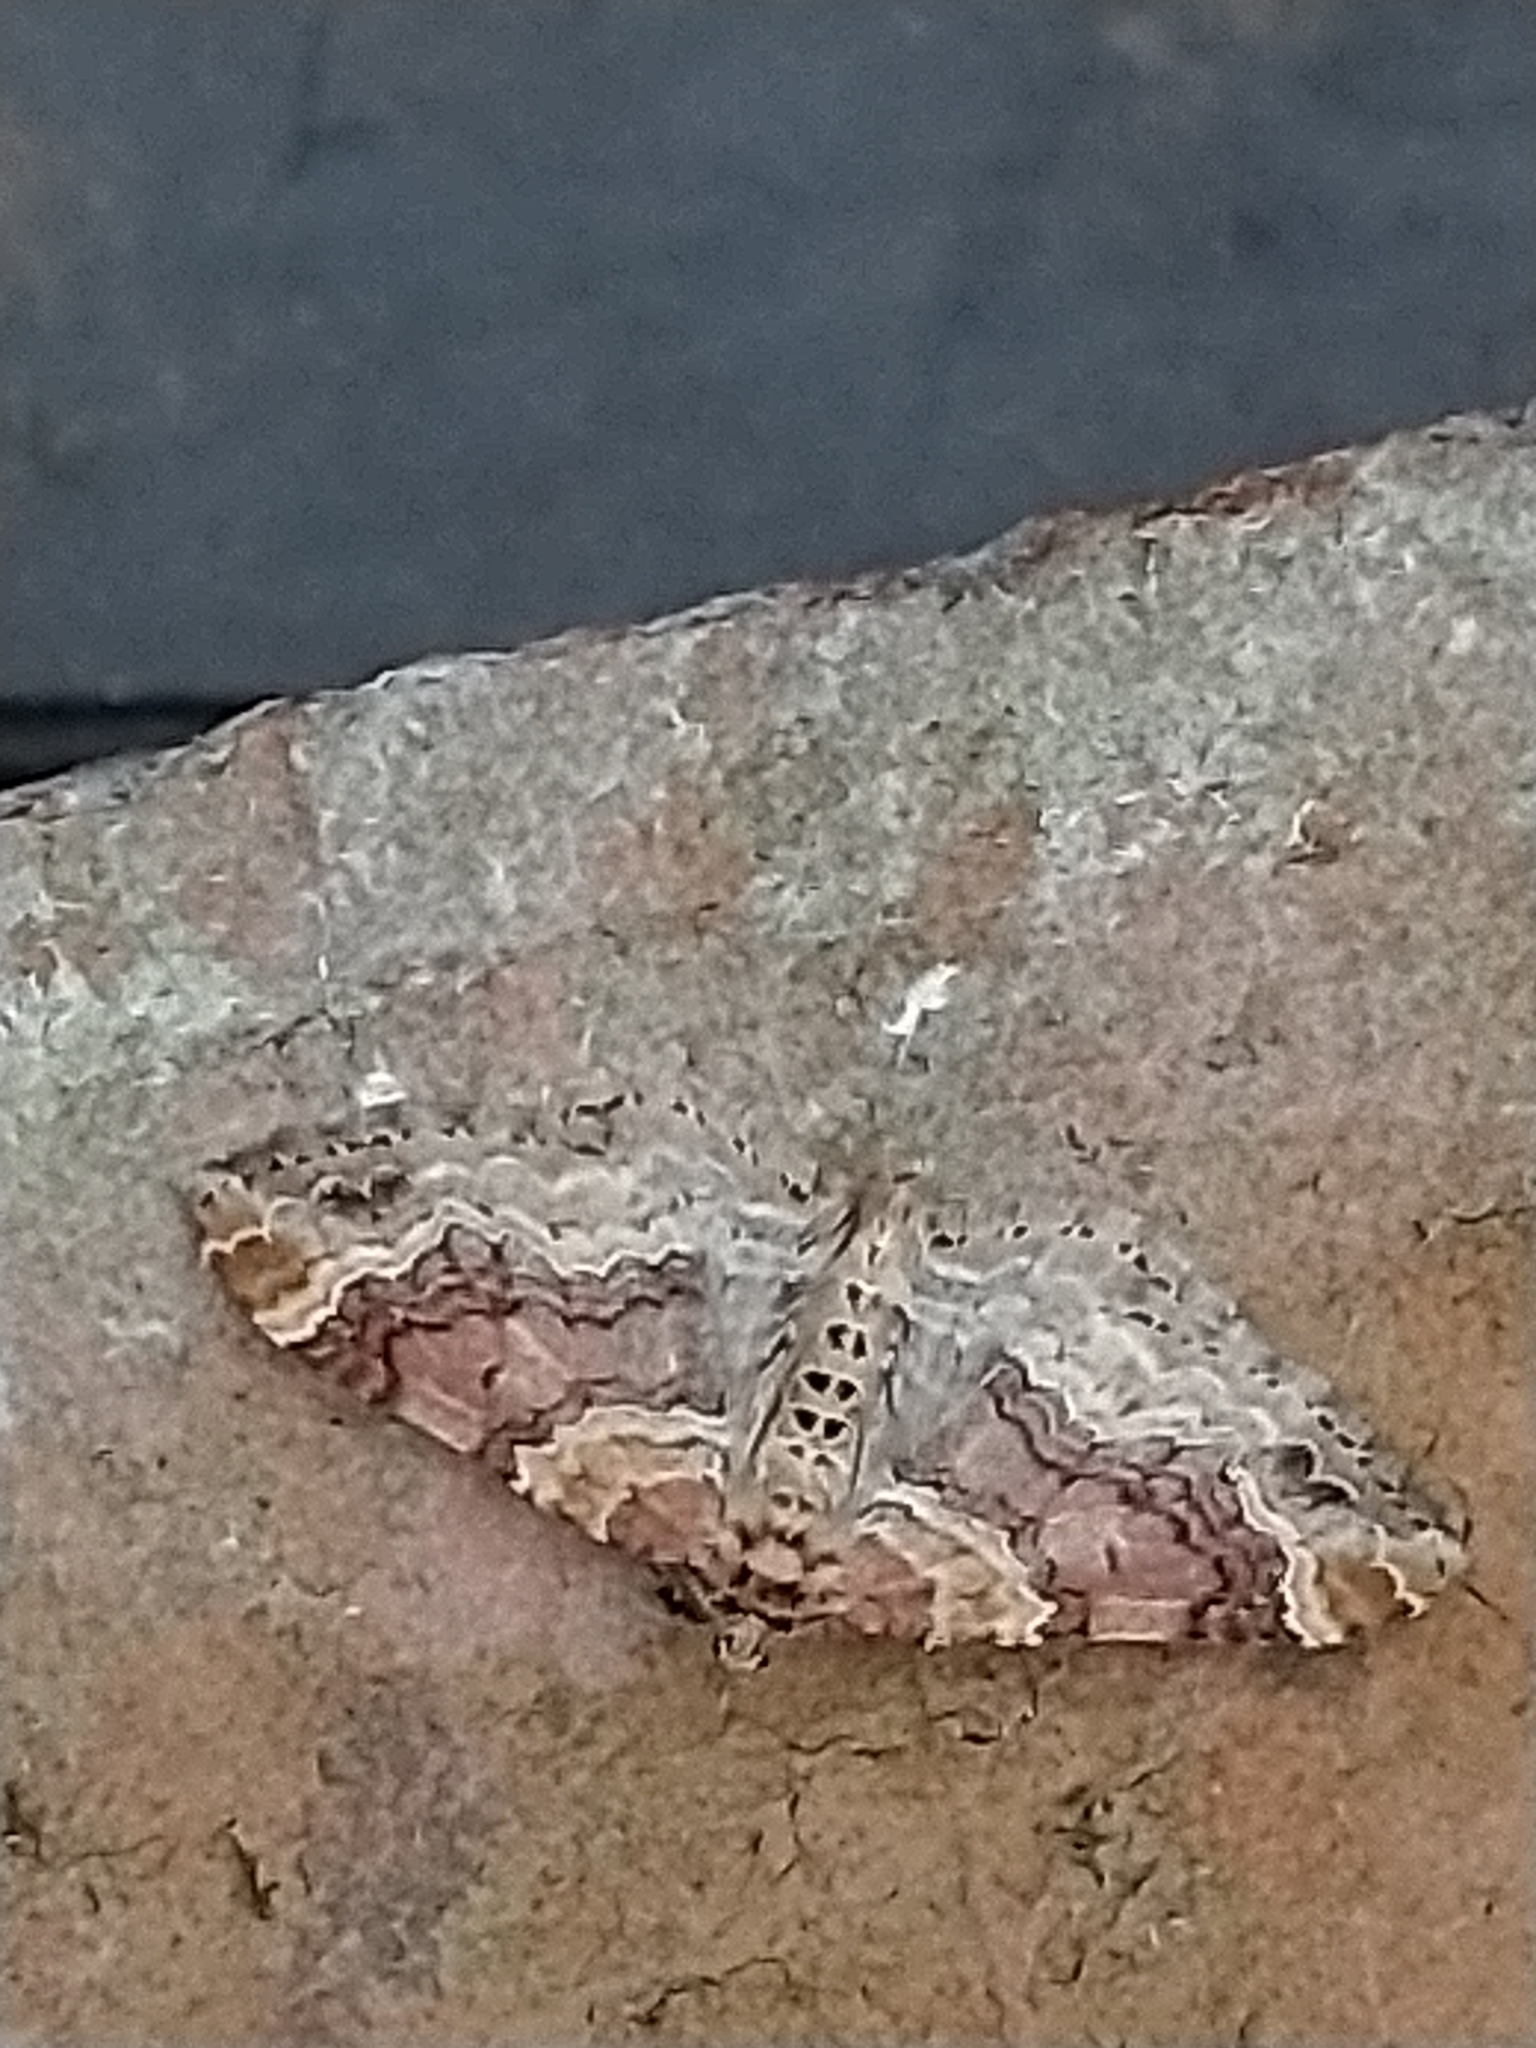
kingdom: Animalia
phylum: Arthropoda
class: Insecta
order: Lepidoptera
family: Geometridae
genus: Xanthorhoe
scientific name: Xanthorhoe spadicearia
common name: Red twin-spot carpet
